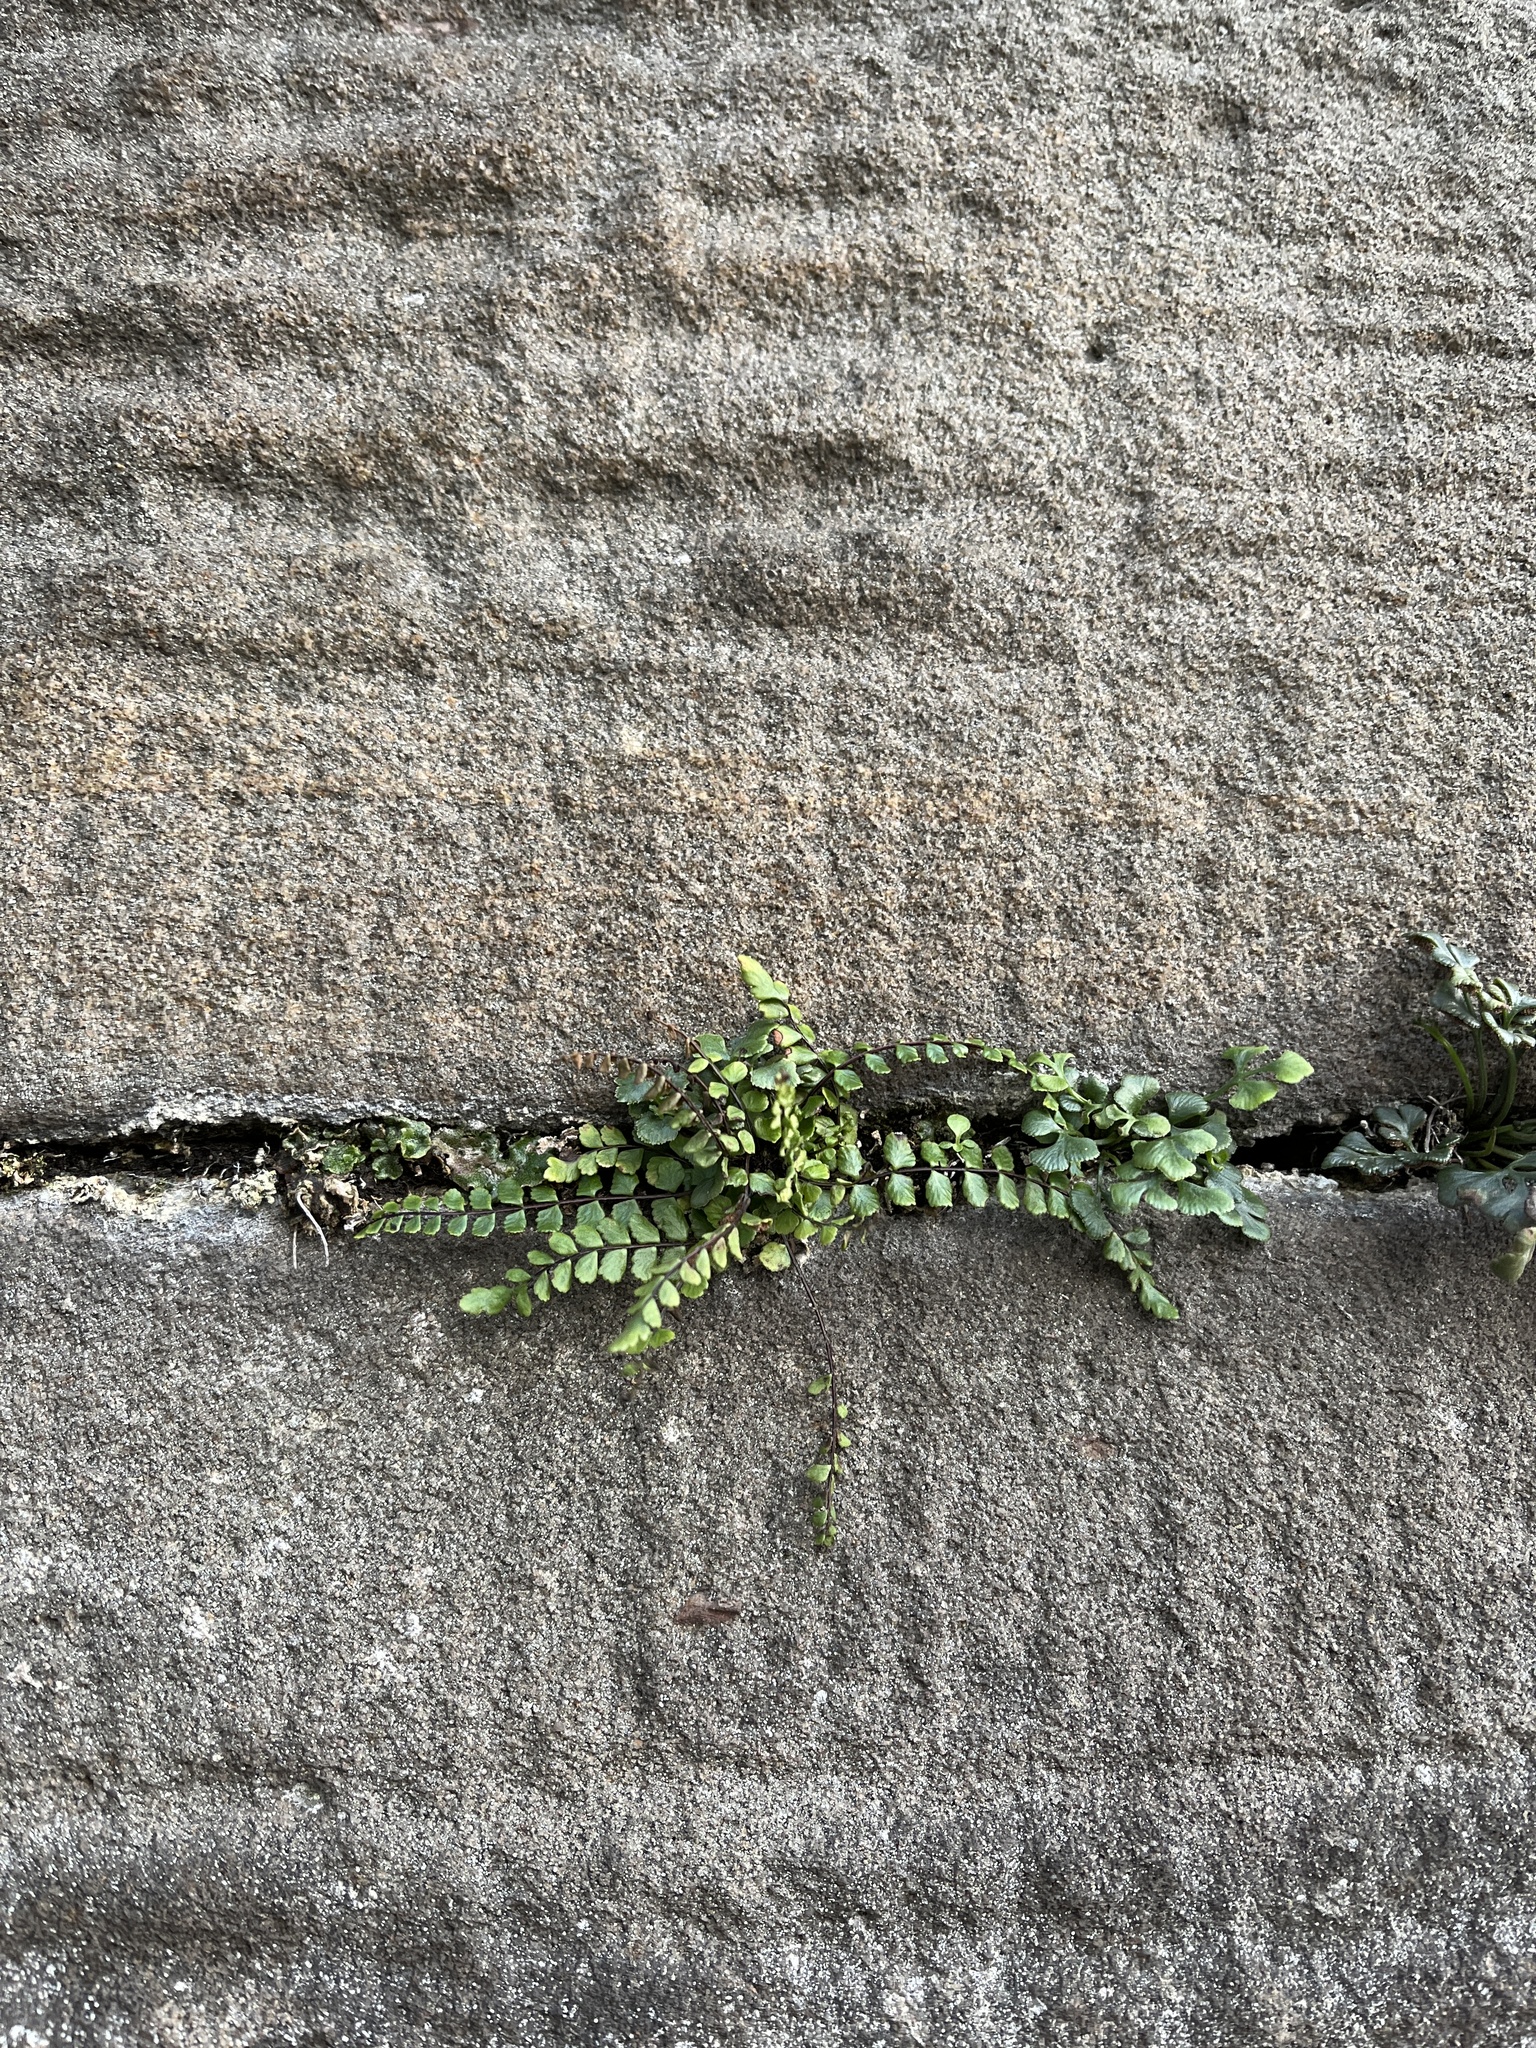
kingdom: Plantae
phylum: Tracheophyta
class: Polypodiopsida
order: Polypodiales
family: Aspleniaceae
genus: Asplenium
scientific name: Asplenium trichomanes
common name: Maidenhair spleenwort
